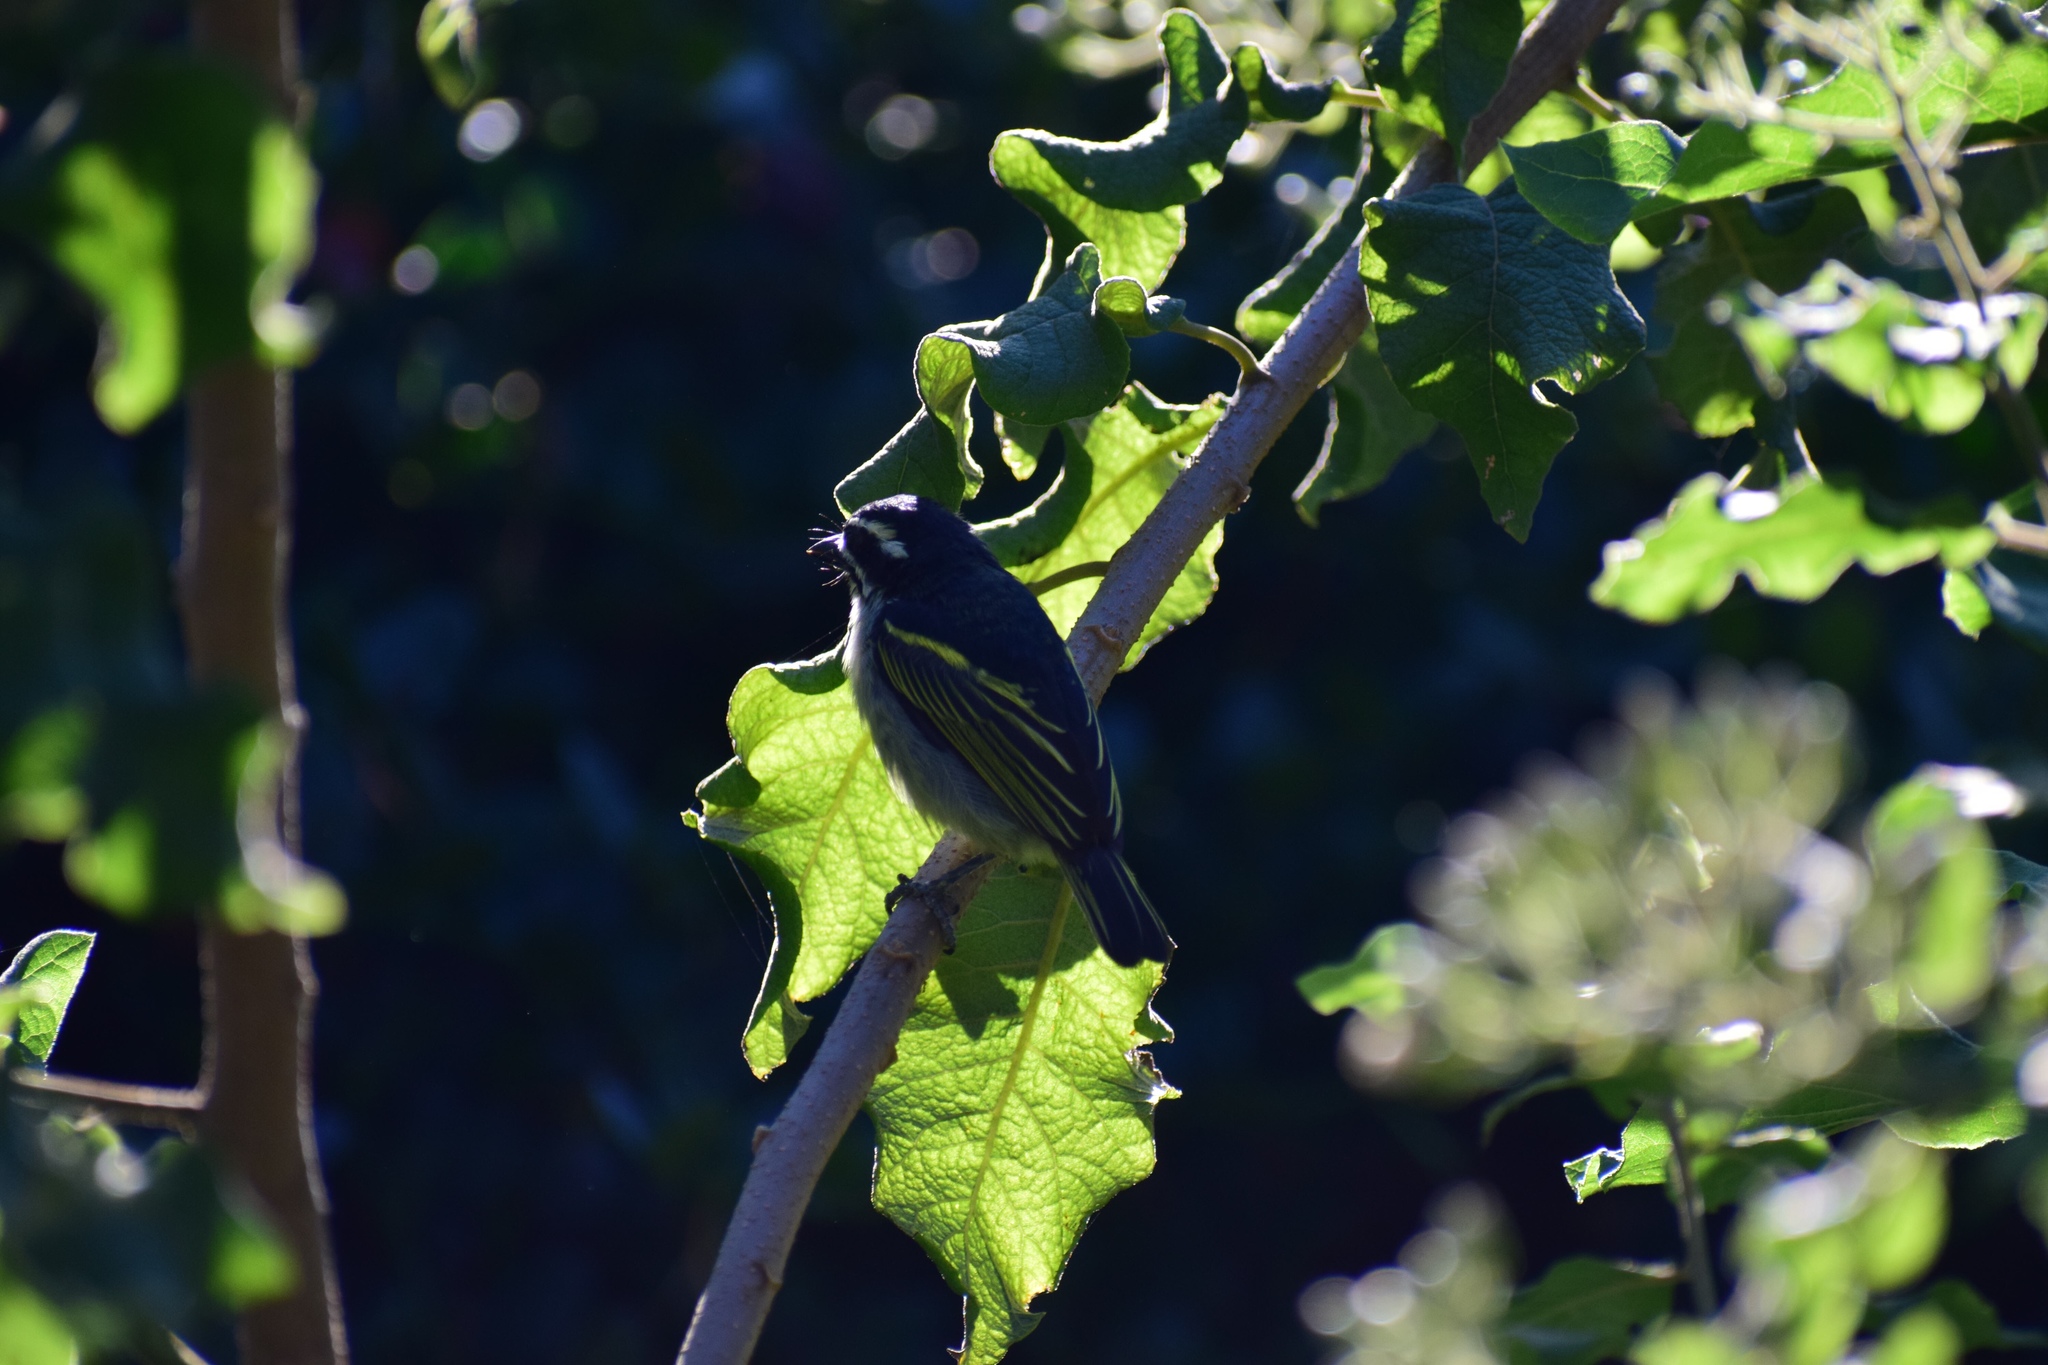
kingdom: Animalia
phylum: Chordata
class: Aves
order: Piciformes
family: Lybiidae
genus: Pogoniulus
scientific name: Pogoniulus bilineatus
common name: Yellow-rumped tinkerbird
